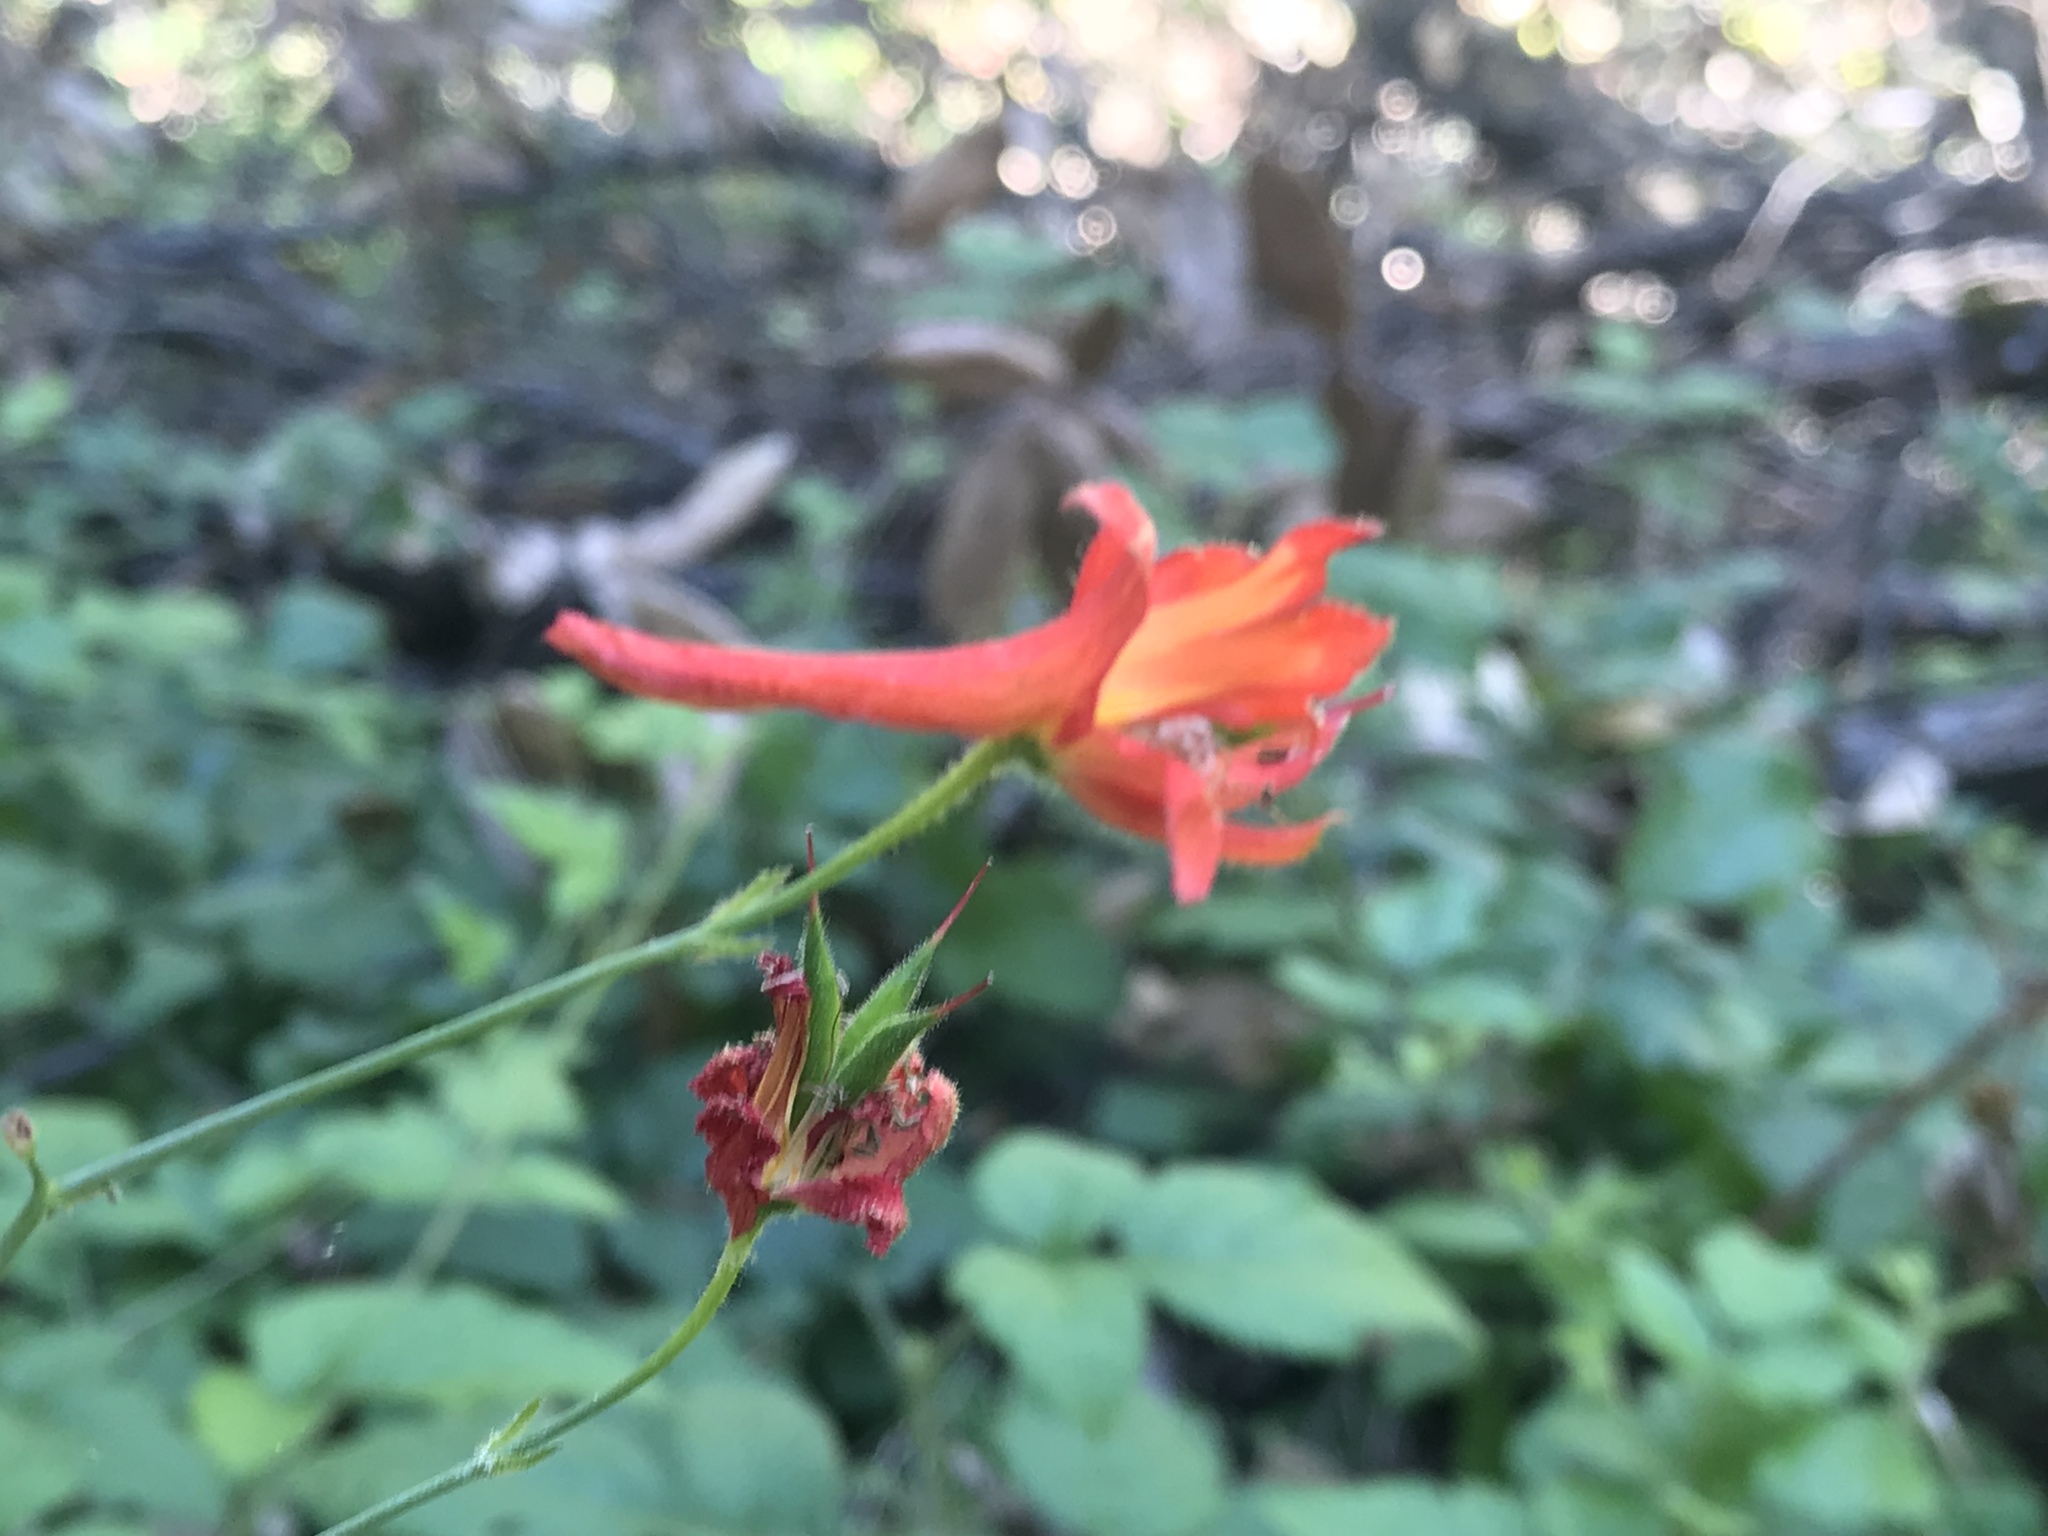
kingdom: Plantae
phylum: Tracheophyta
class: Magnoliopsida
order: Ranunculales
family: Ranunculaceae
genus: Delphinium
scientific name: Delphinium nudicaule
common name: Red larkspur
